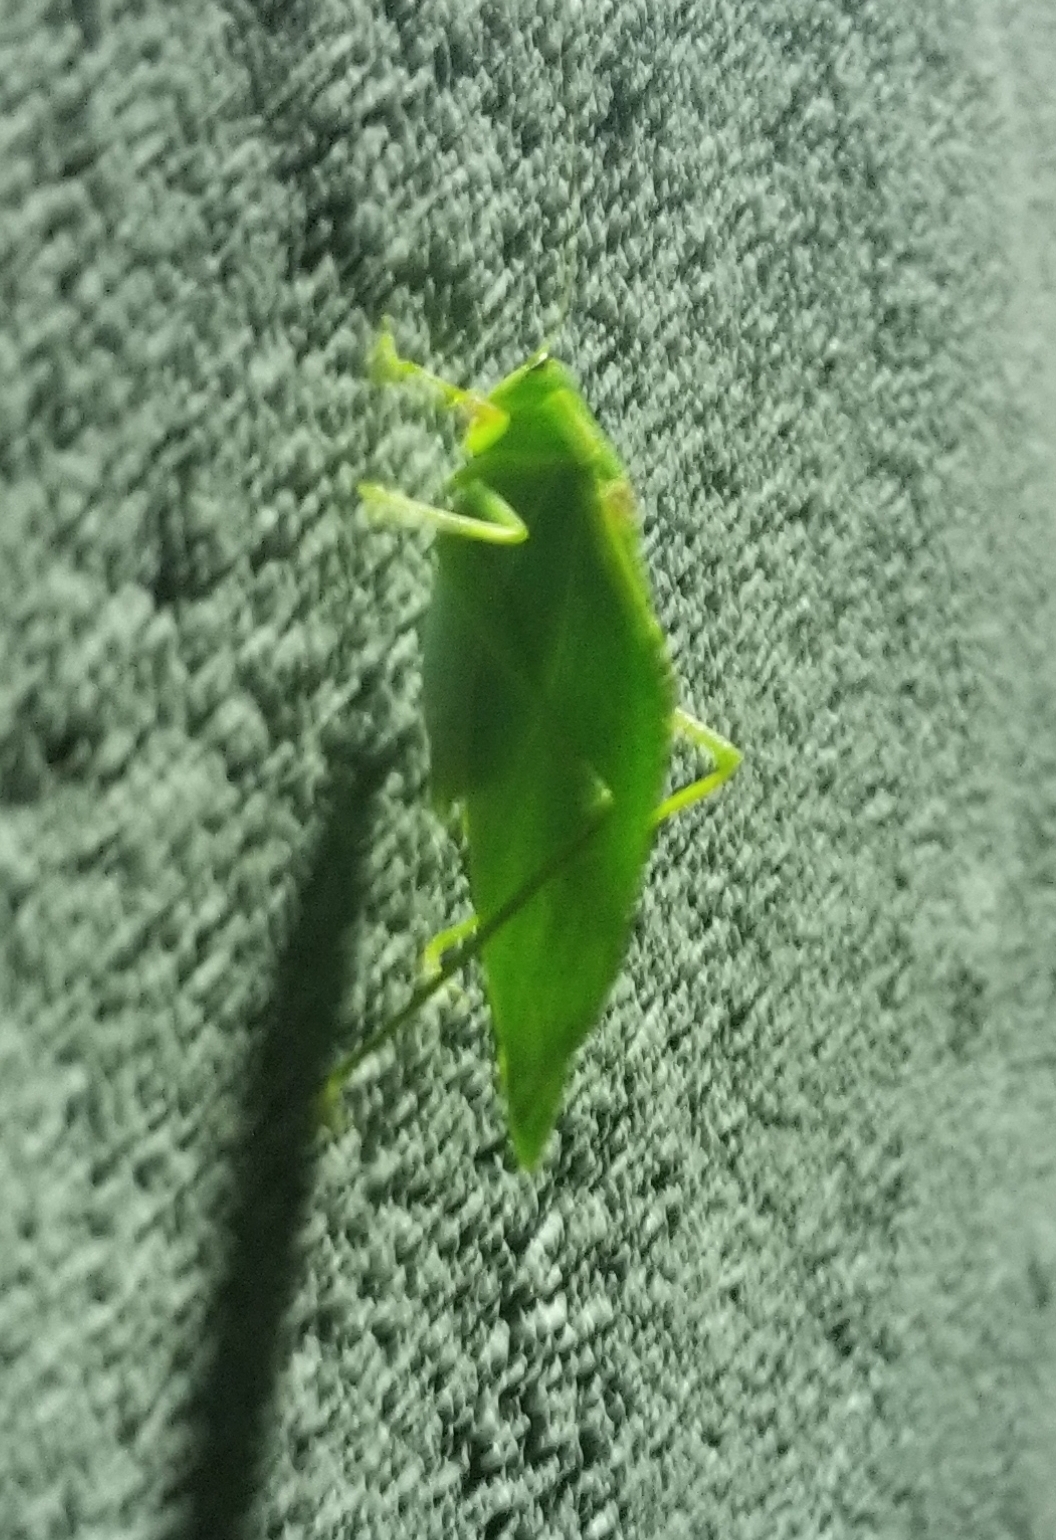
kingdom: Animalia
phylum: Arthropoda
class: Insecta
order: Orthoptera
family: Tettigoniidae
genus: Microcentrum
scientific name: Microcentrum retinerve
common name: Angular-winged katydid
